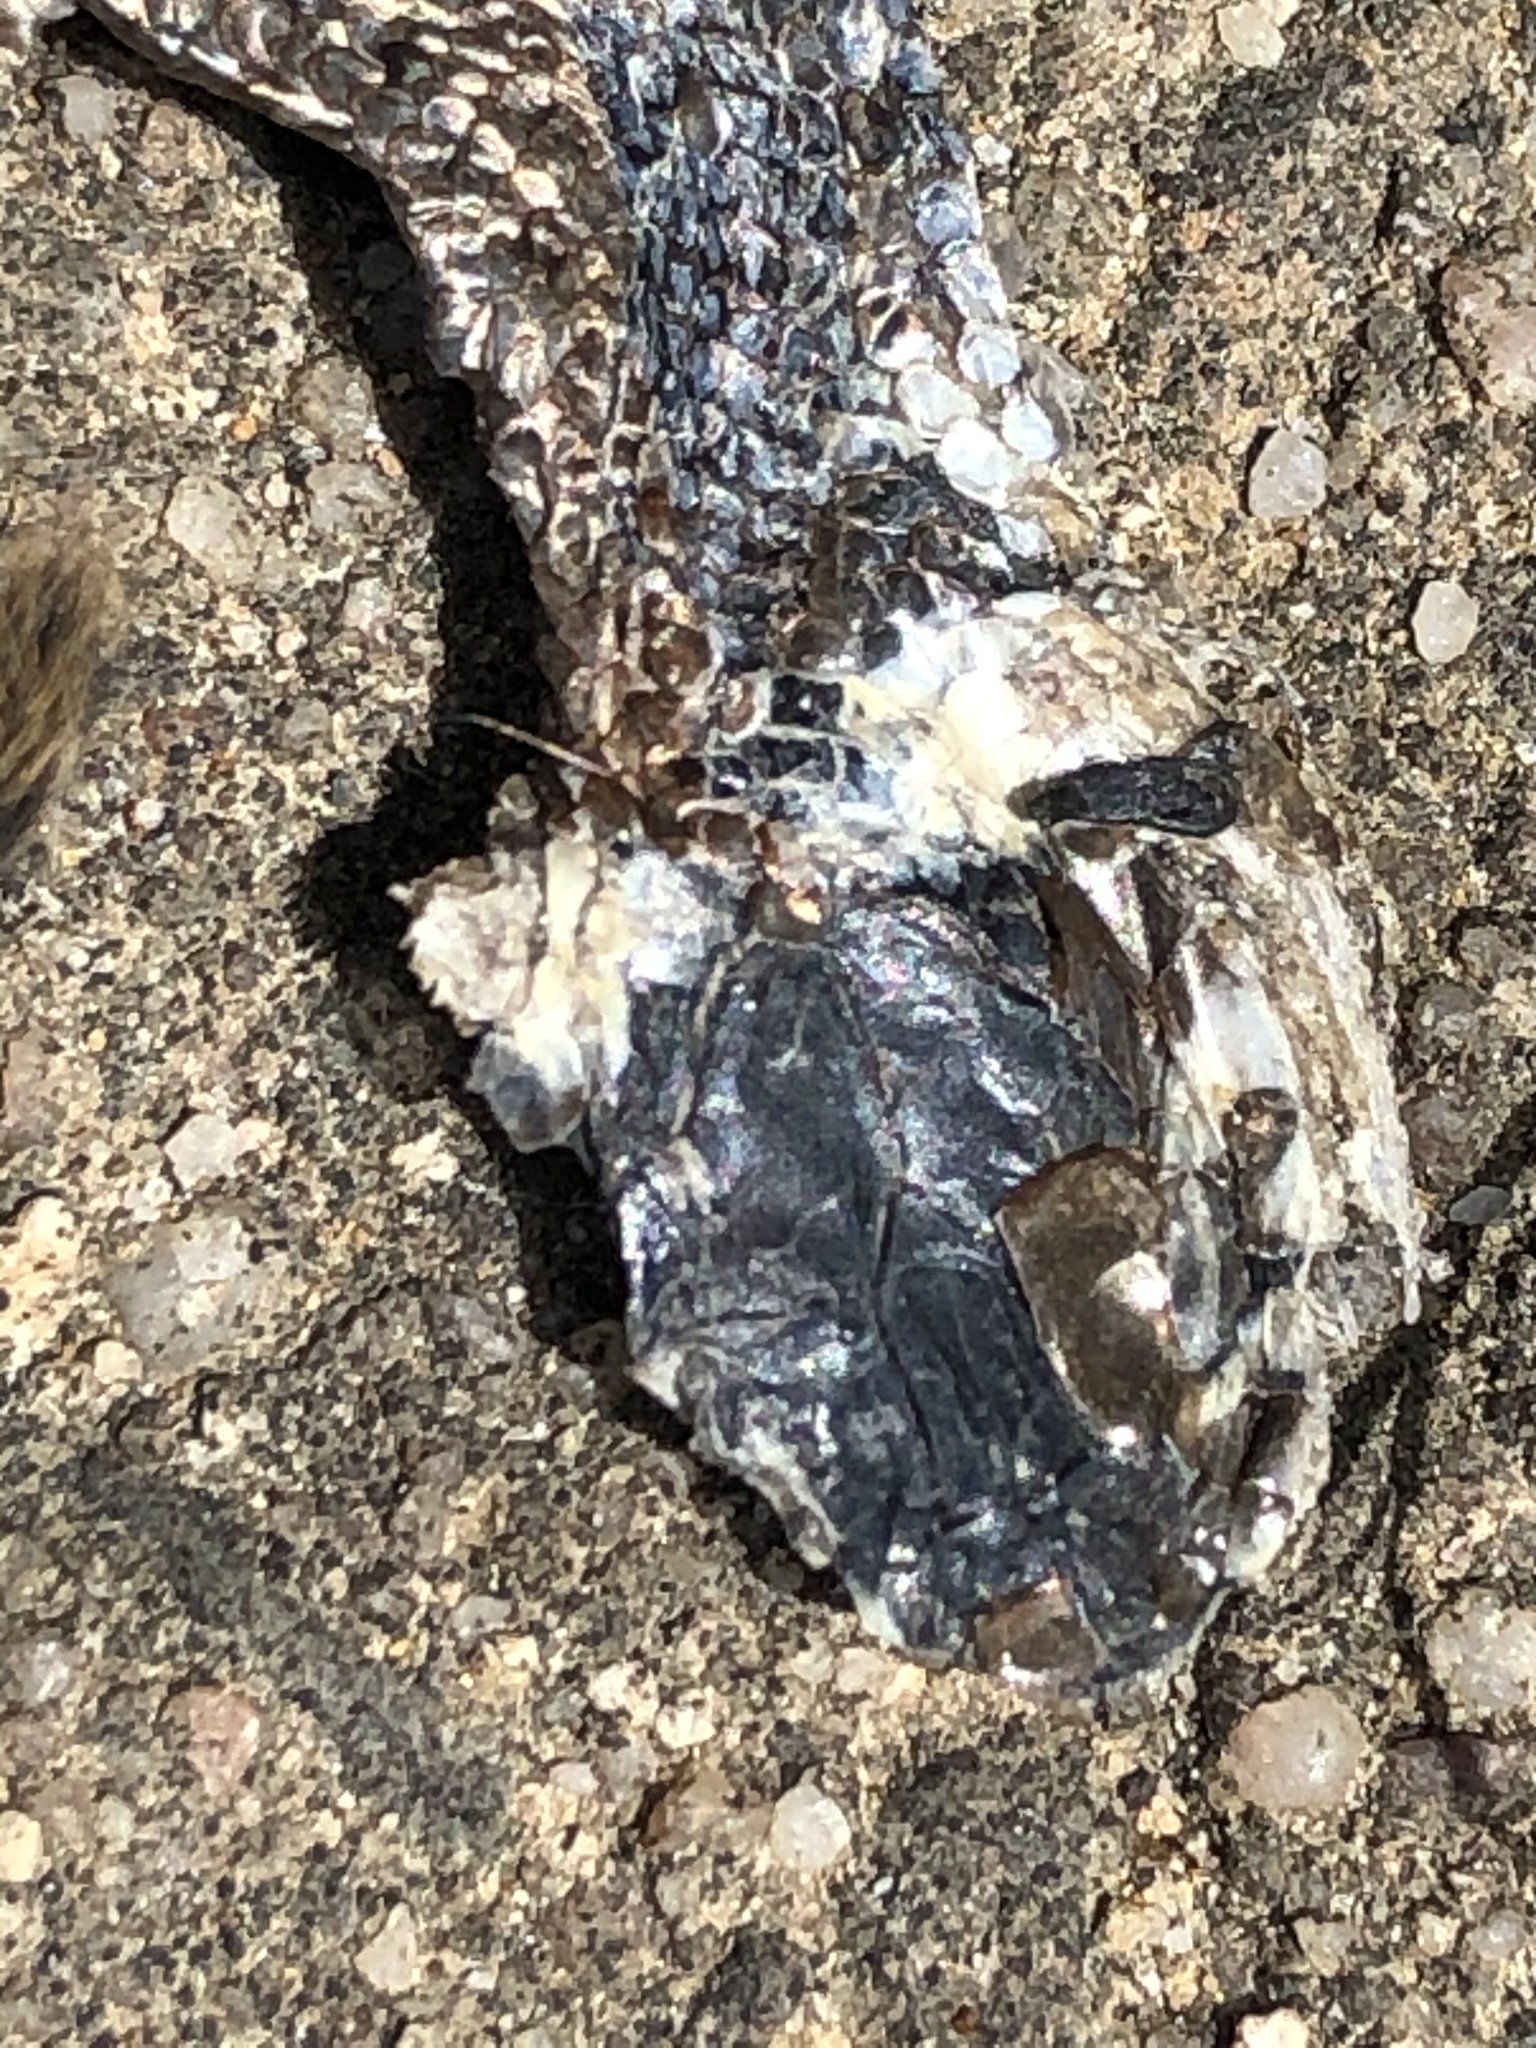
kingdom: Animalia
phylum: Chordata
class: Squamata
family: Colubridae
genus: Natrix
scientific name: Natrix natrix
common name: Grass snake
